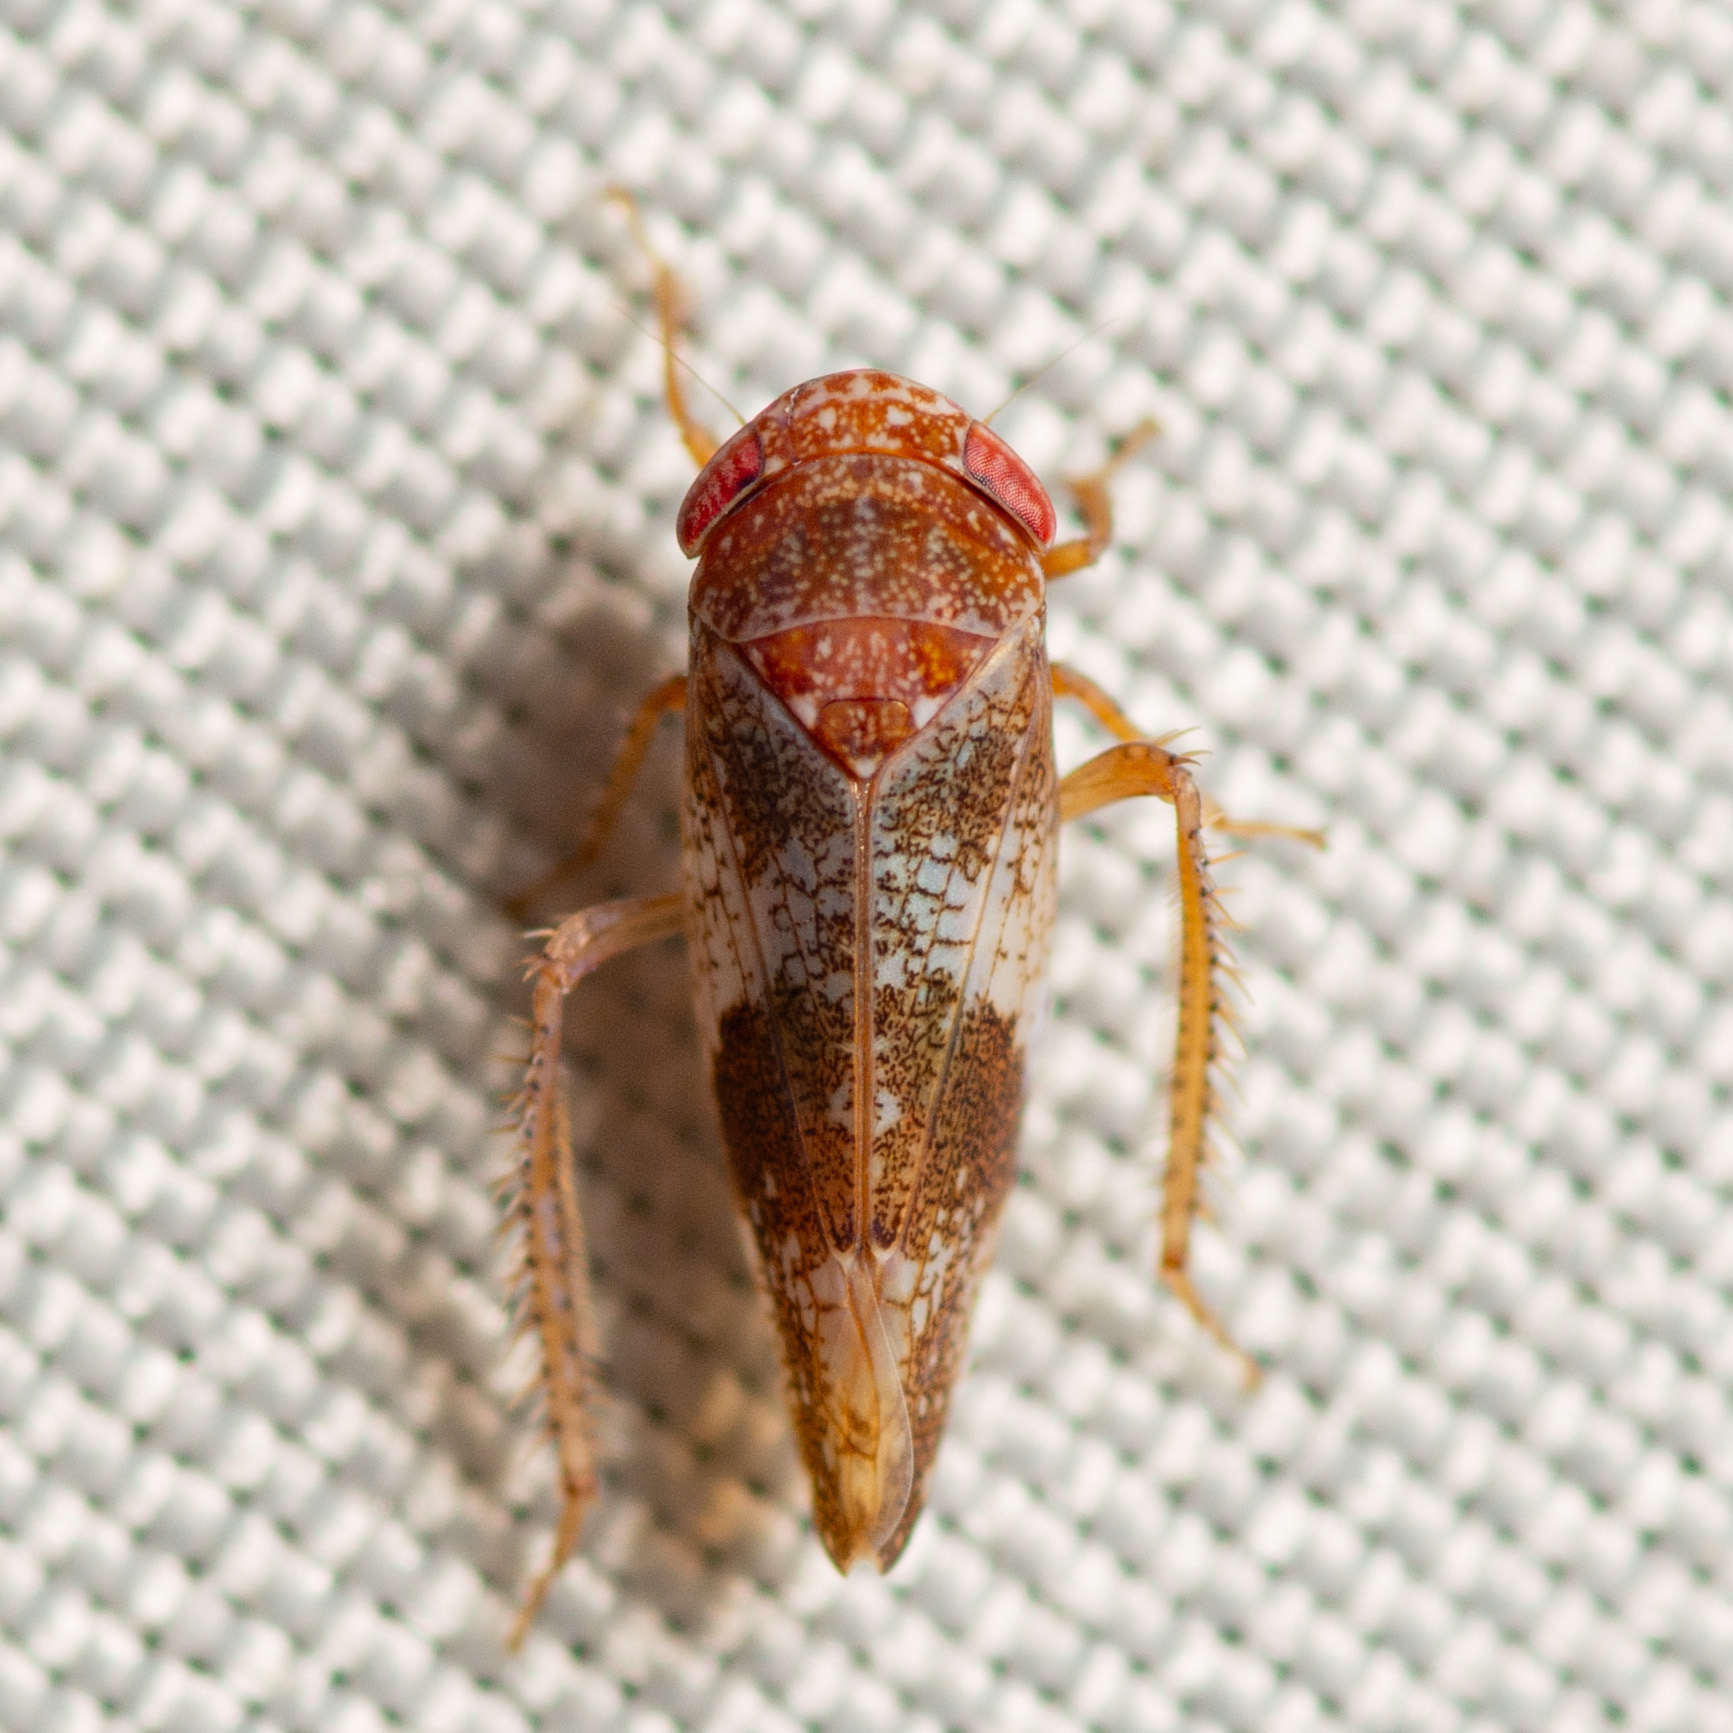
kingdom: Animalia
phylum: Arthropoda
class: Insecta
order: Hemiptera
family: Cicadellidae
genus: Norvellina
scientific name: Norvellina helenae
